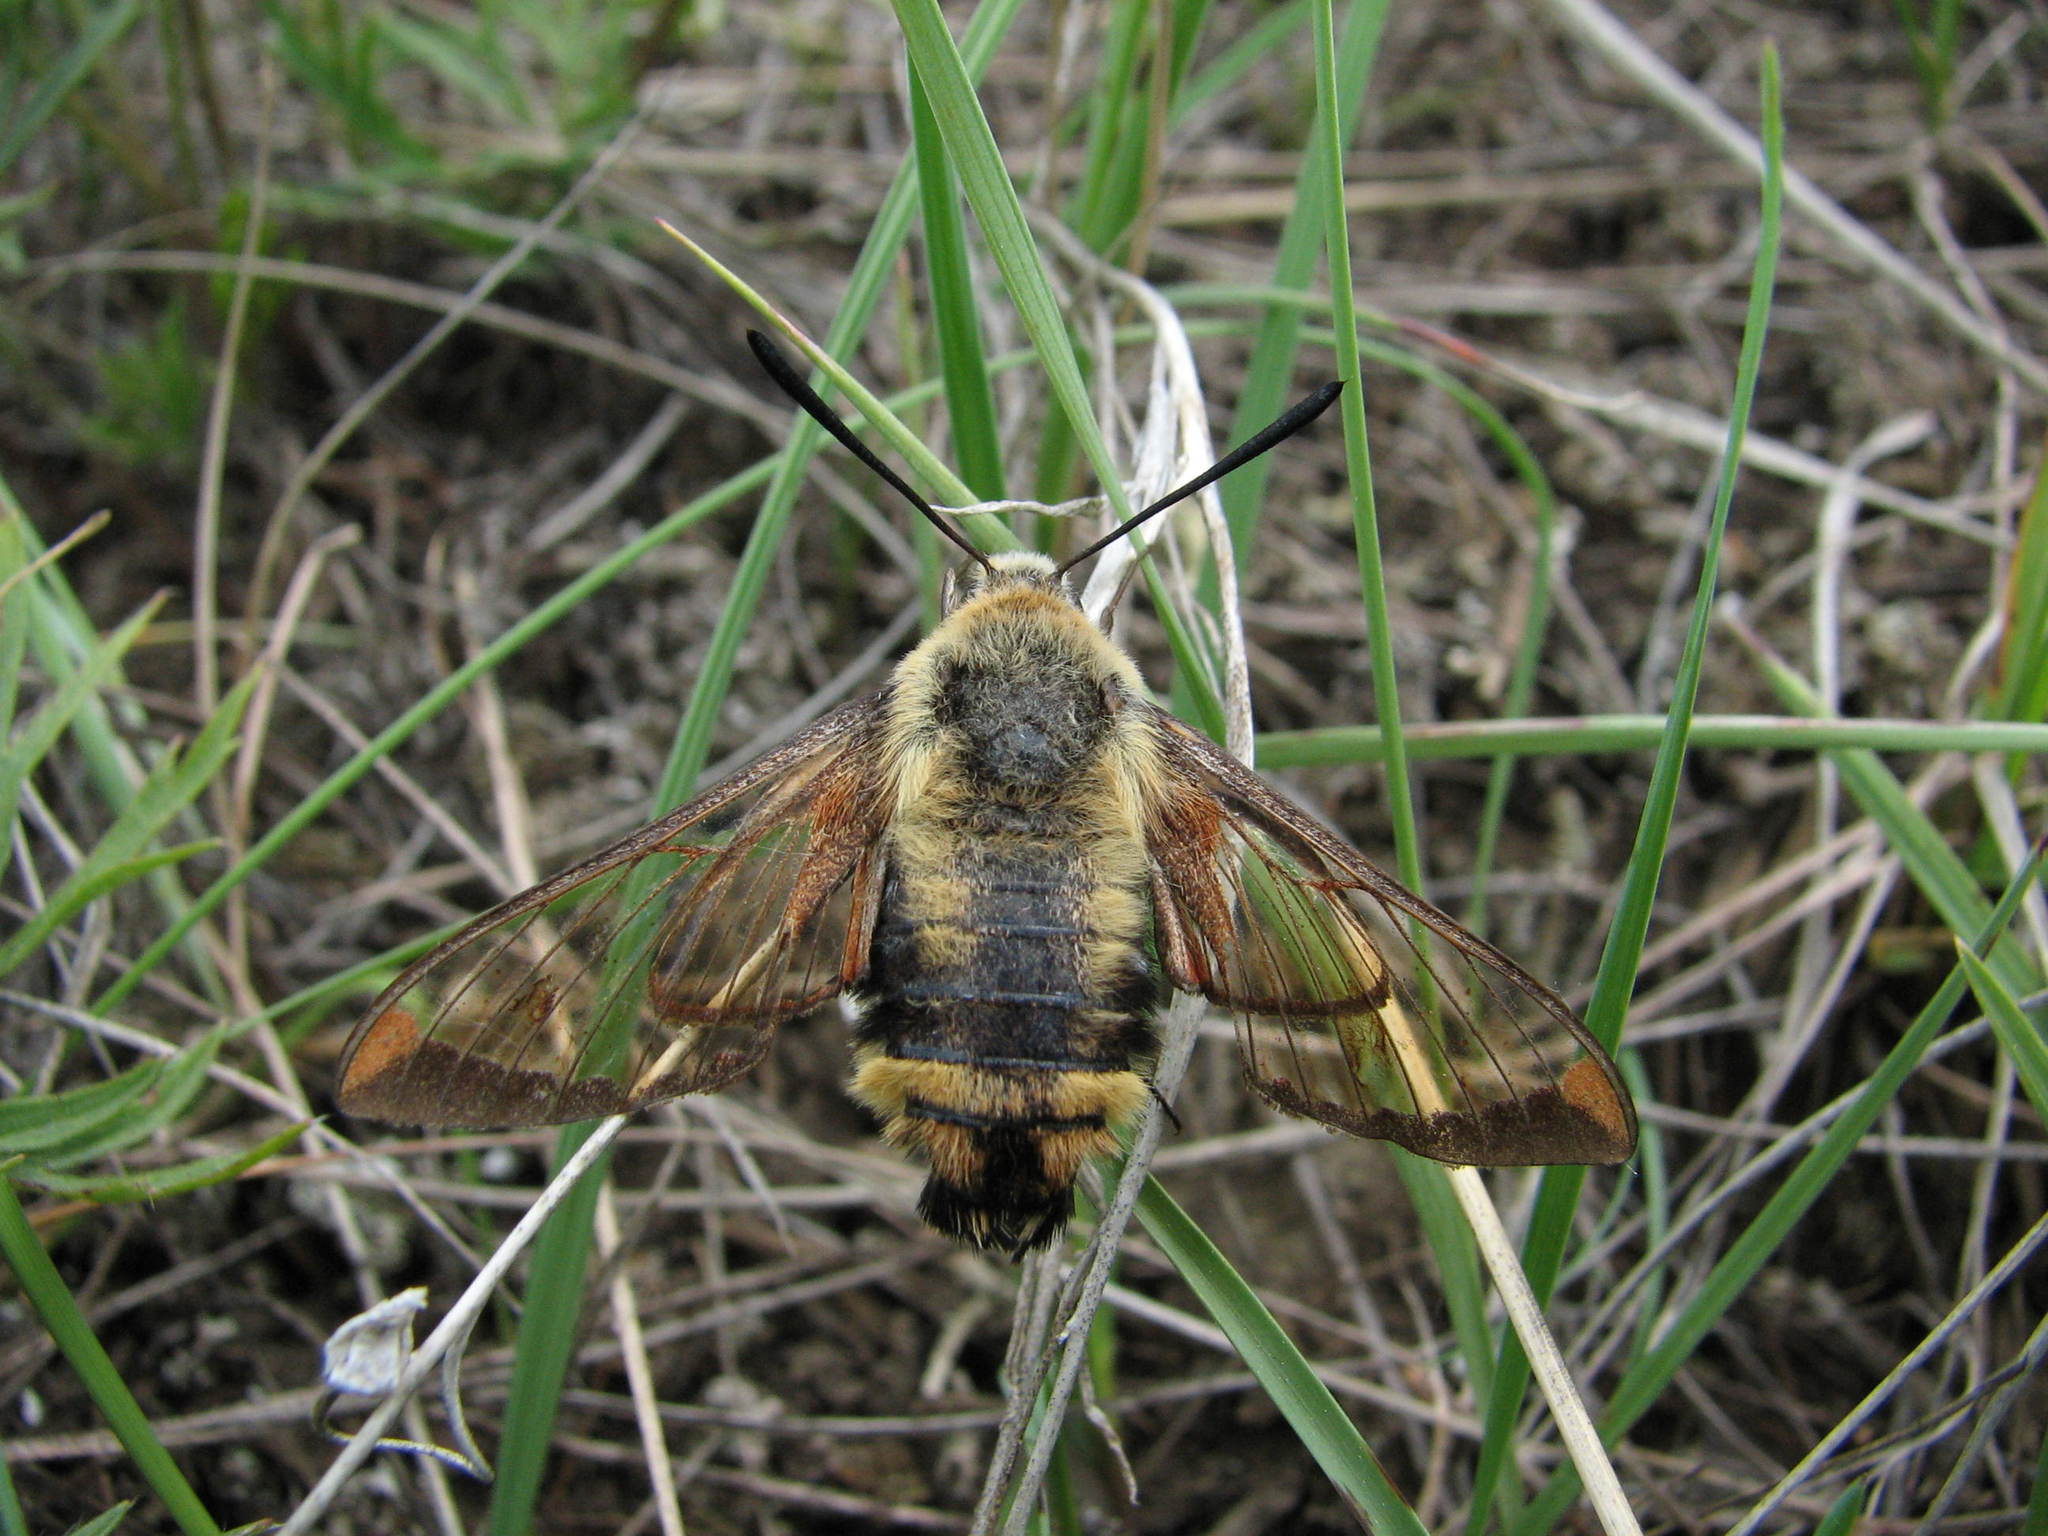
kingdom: Animalia
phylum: Arthropoda
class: Insecta
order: Lepidoptera
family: Sphingidae
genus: Hemaris
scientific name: Hemaris diffinis
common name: Bumblebee moth
